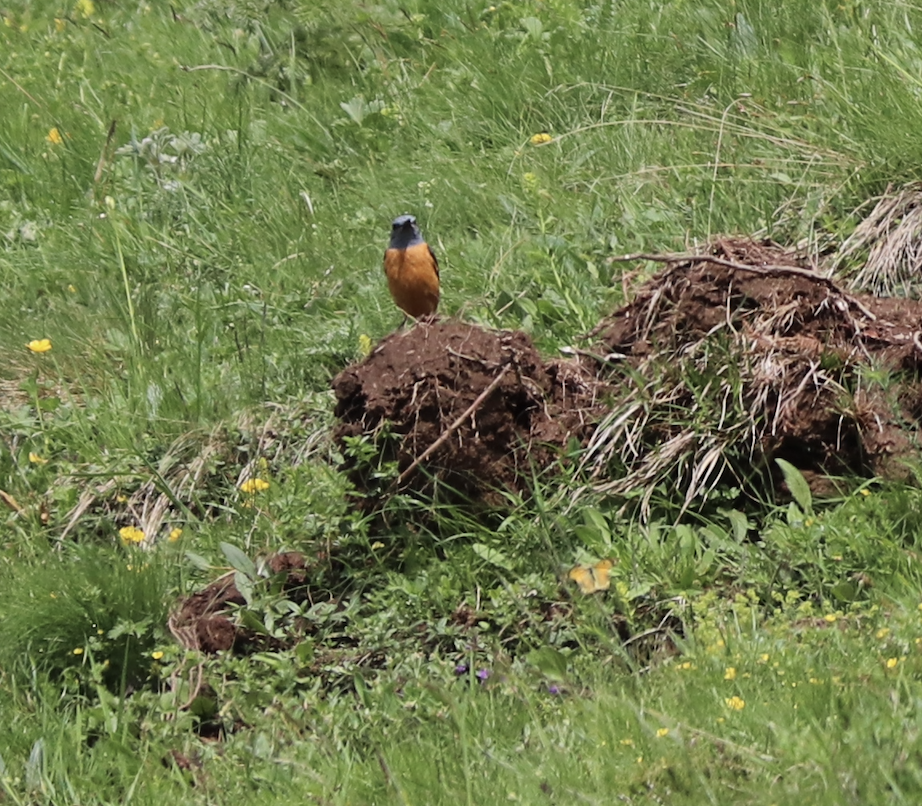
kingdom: Animalia
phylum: Chordata
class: Aves
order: Passeriformes
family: Muscicapidae
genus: Monticola
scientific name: Monticola saxatilis
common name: Rufous-tailed rock thrush
